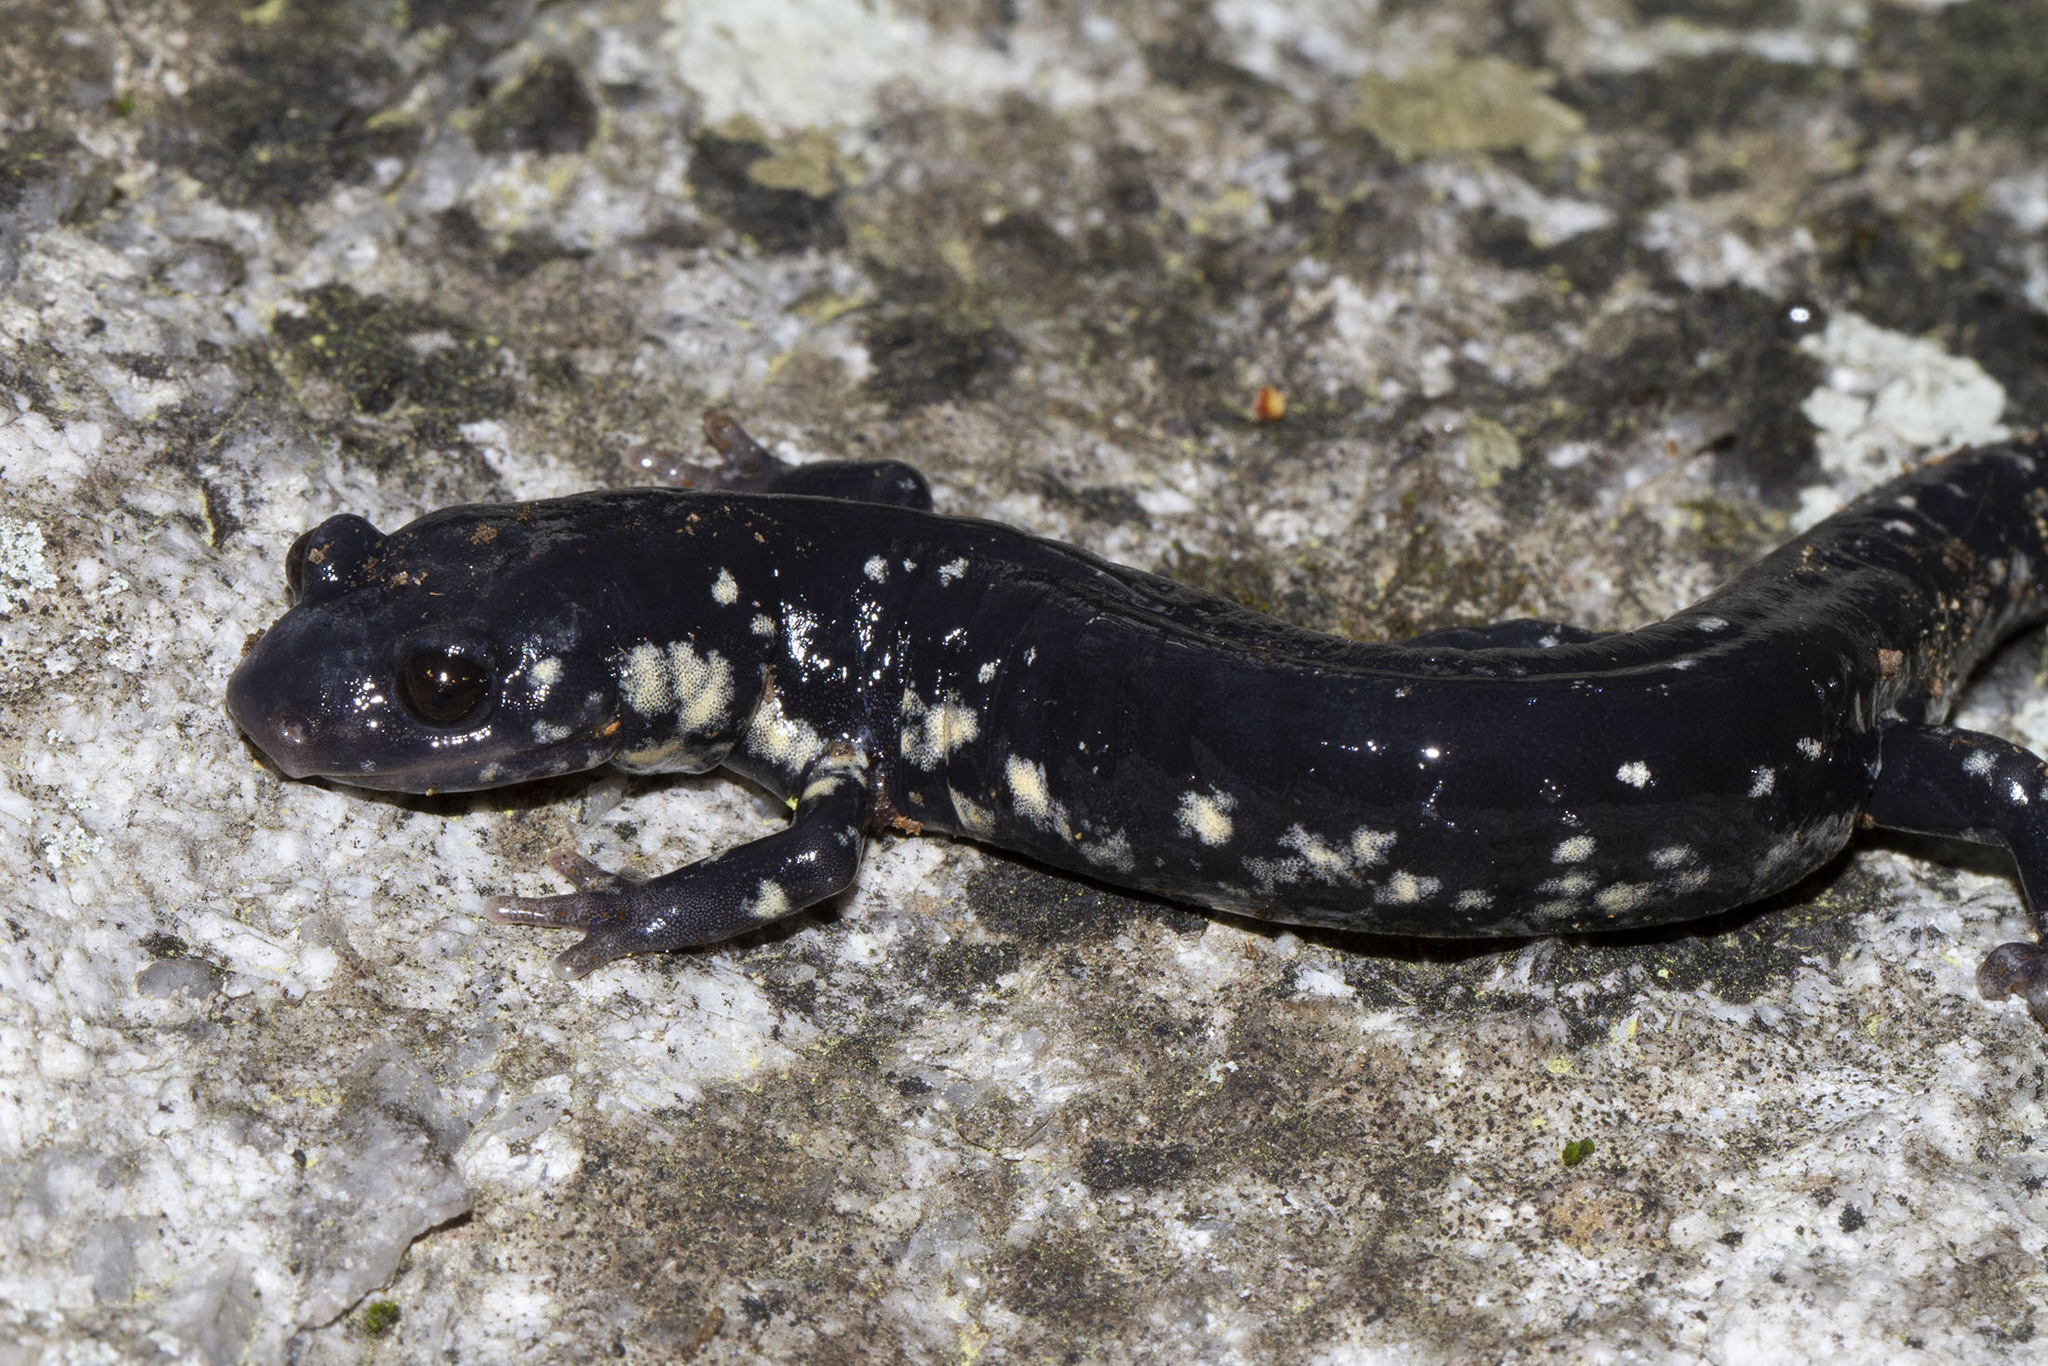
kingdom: Animalia
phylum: Chordata
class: Amphibia
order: Caudata
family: Plethodontidae
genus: Plethodon
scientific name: Plethodon glutinosus
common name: Northern slimy salamander
